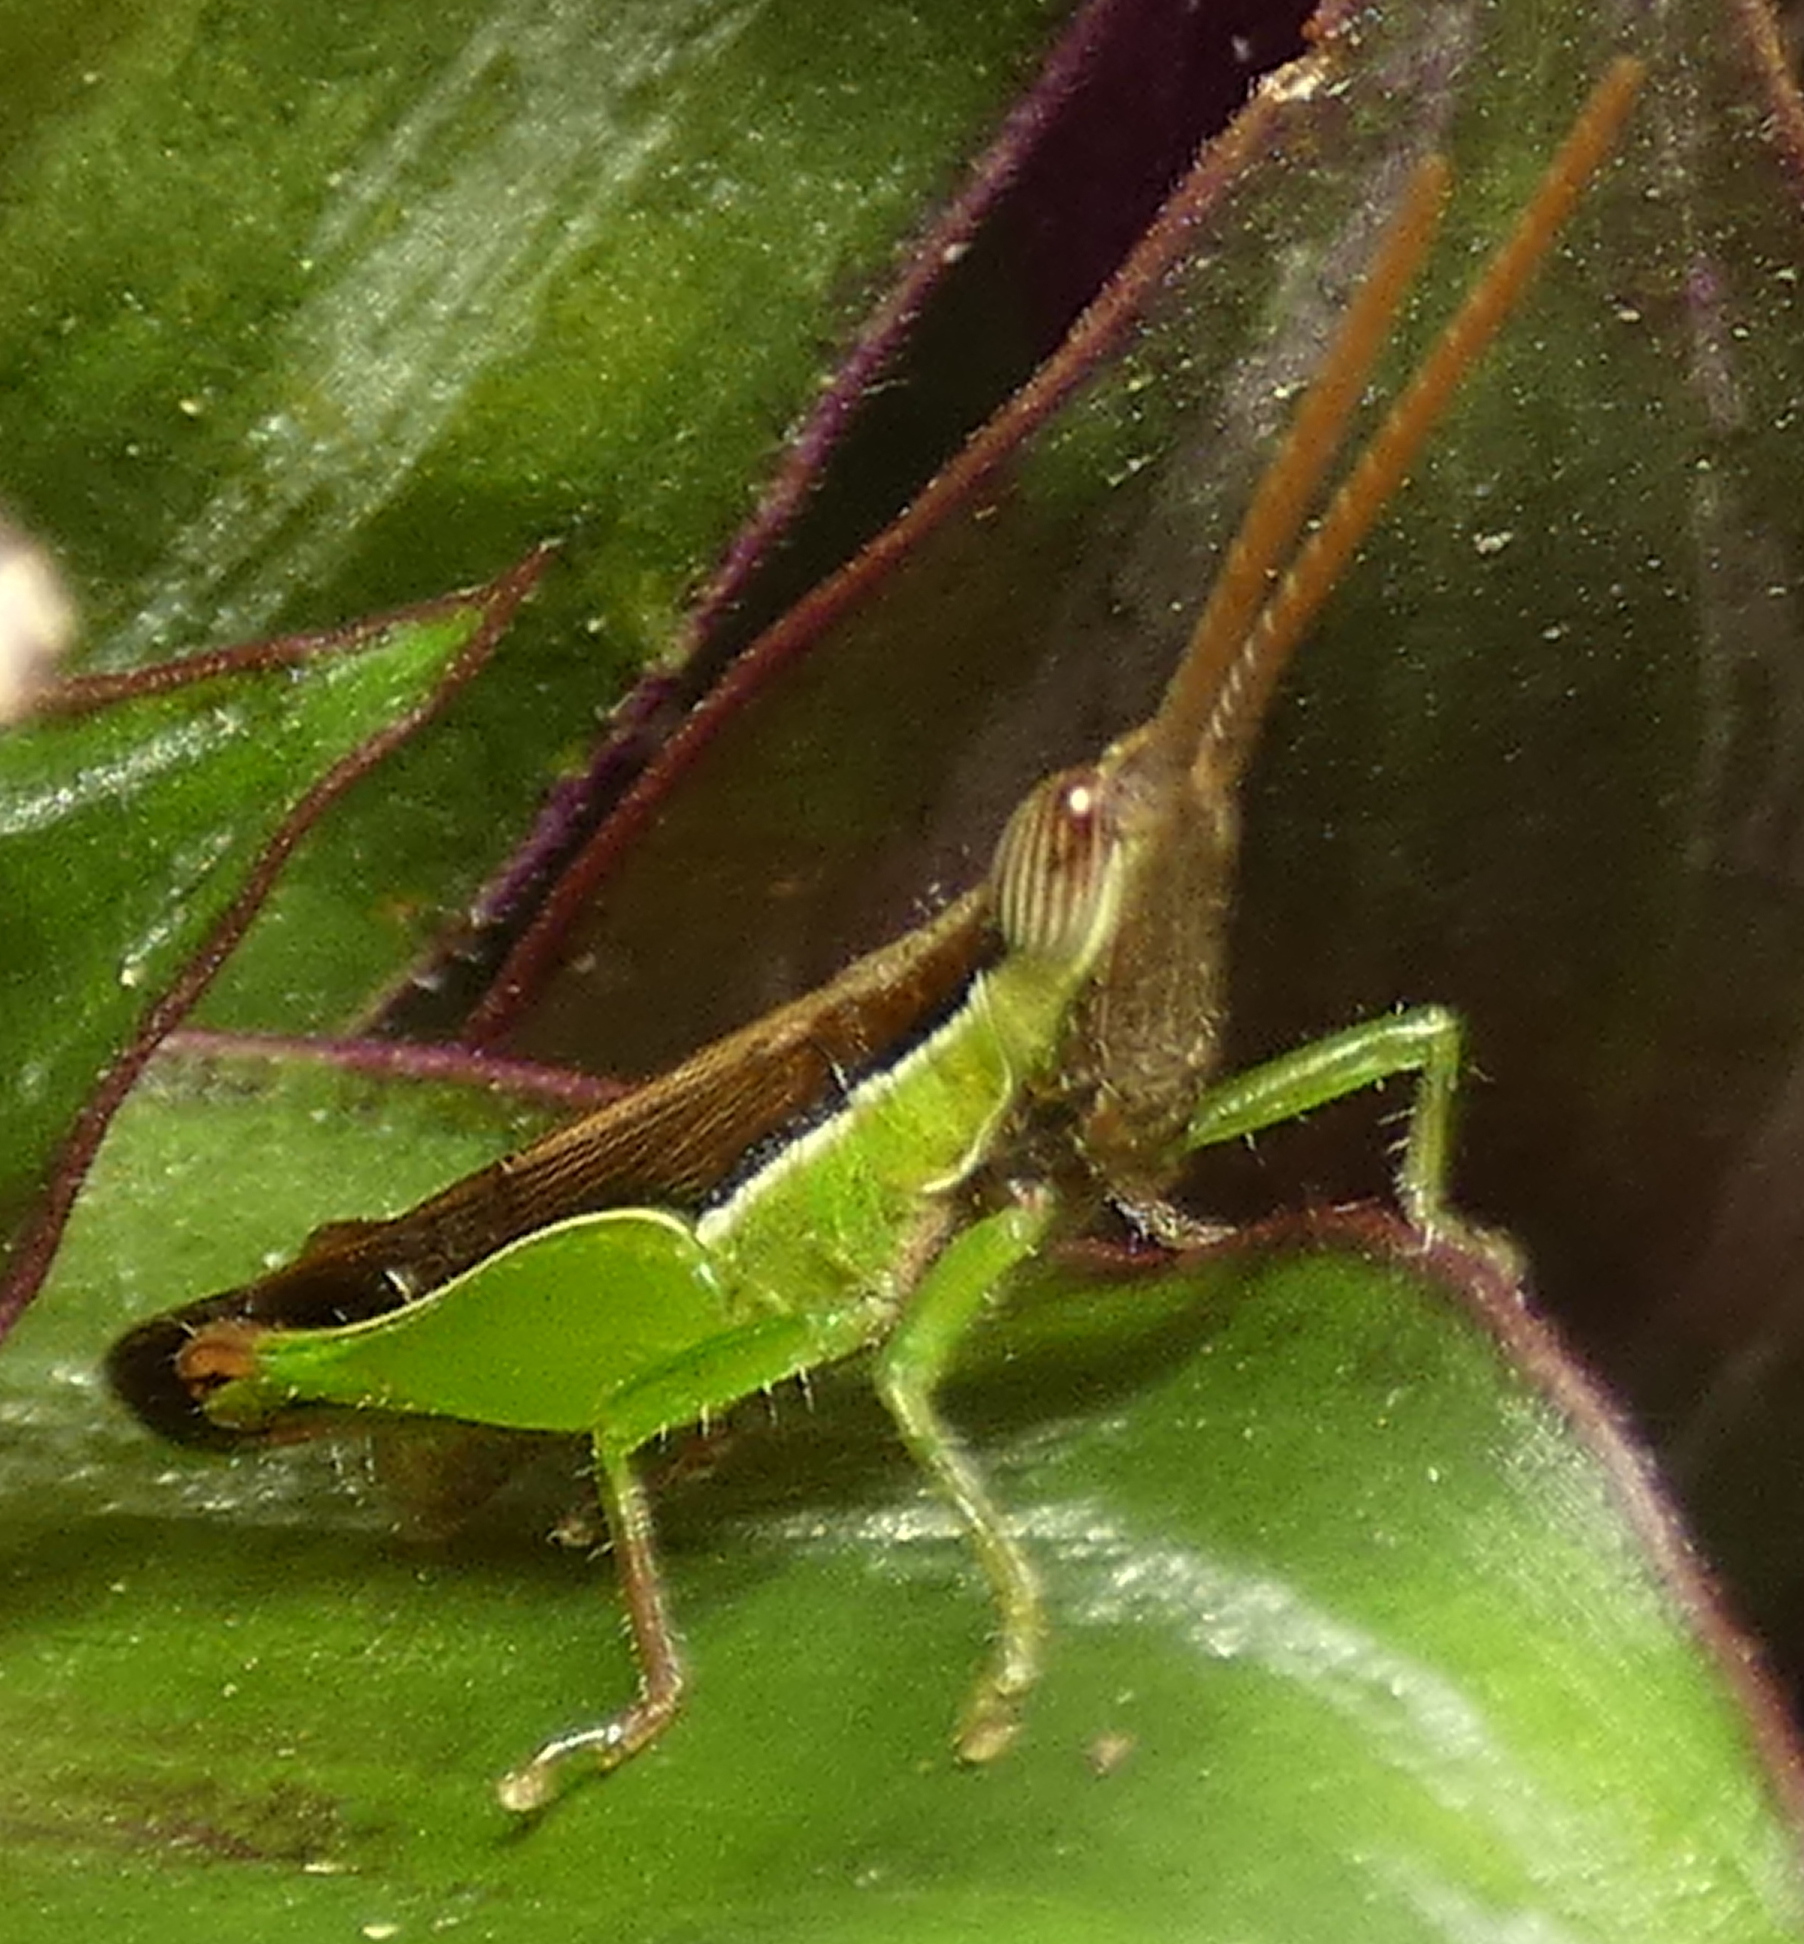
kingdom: Animalia
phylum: Arthropoda
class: Insecta
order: Orthoptera
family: Acrididae
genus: Stenopola
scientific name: Stenopola dorsalis
